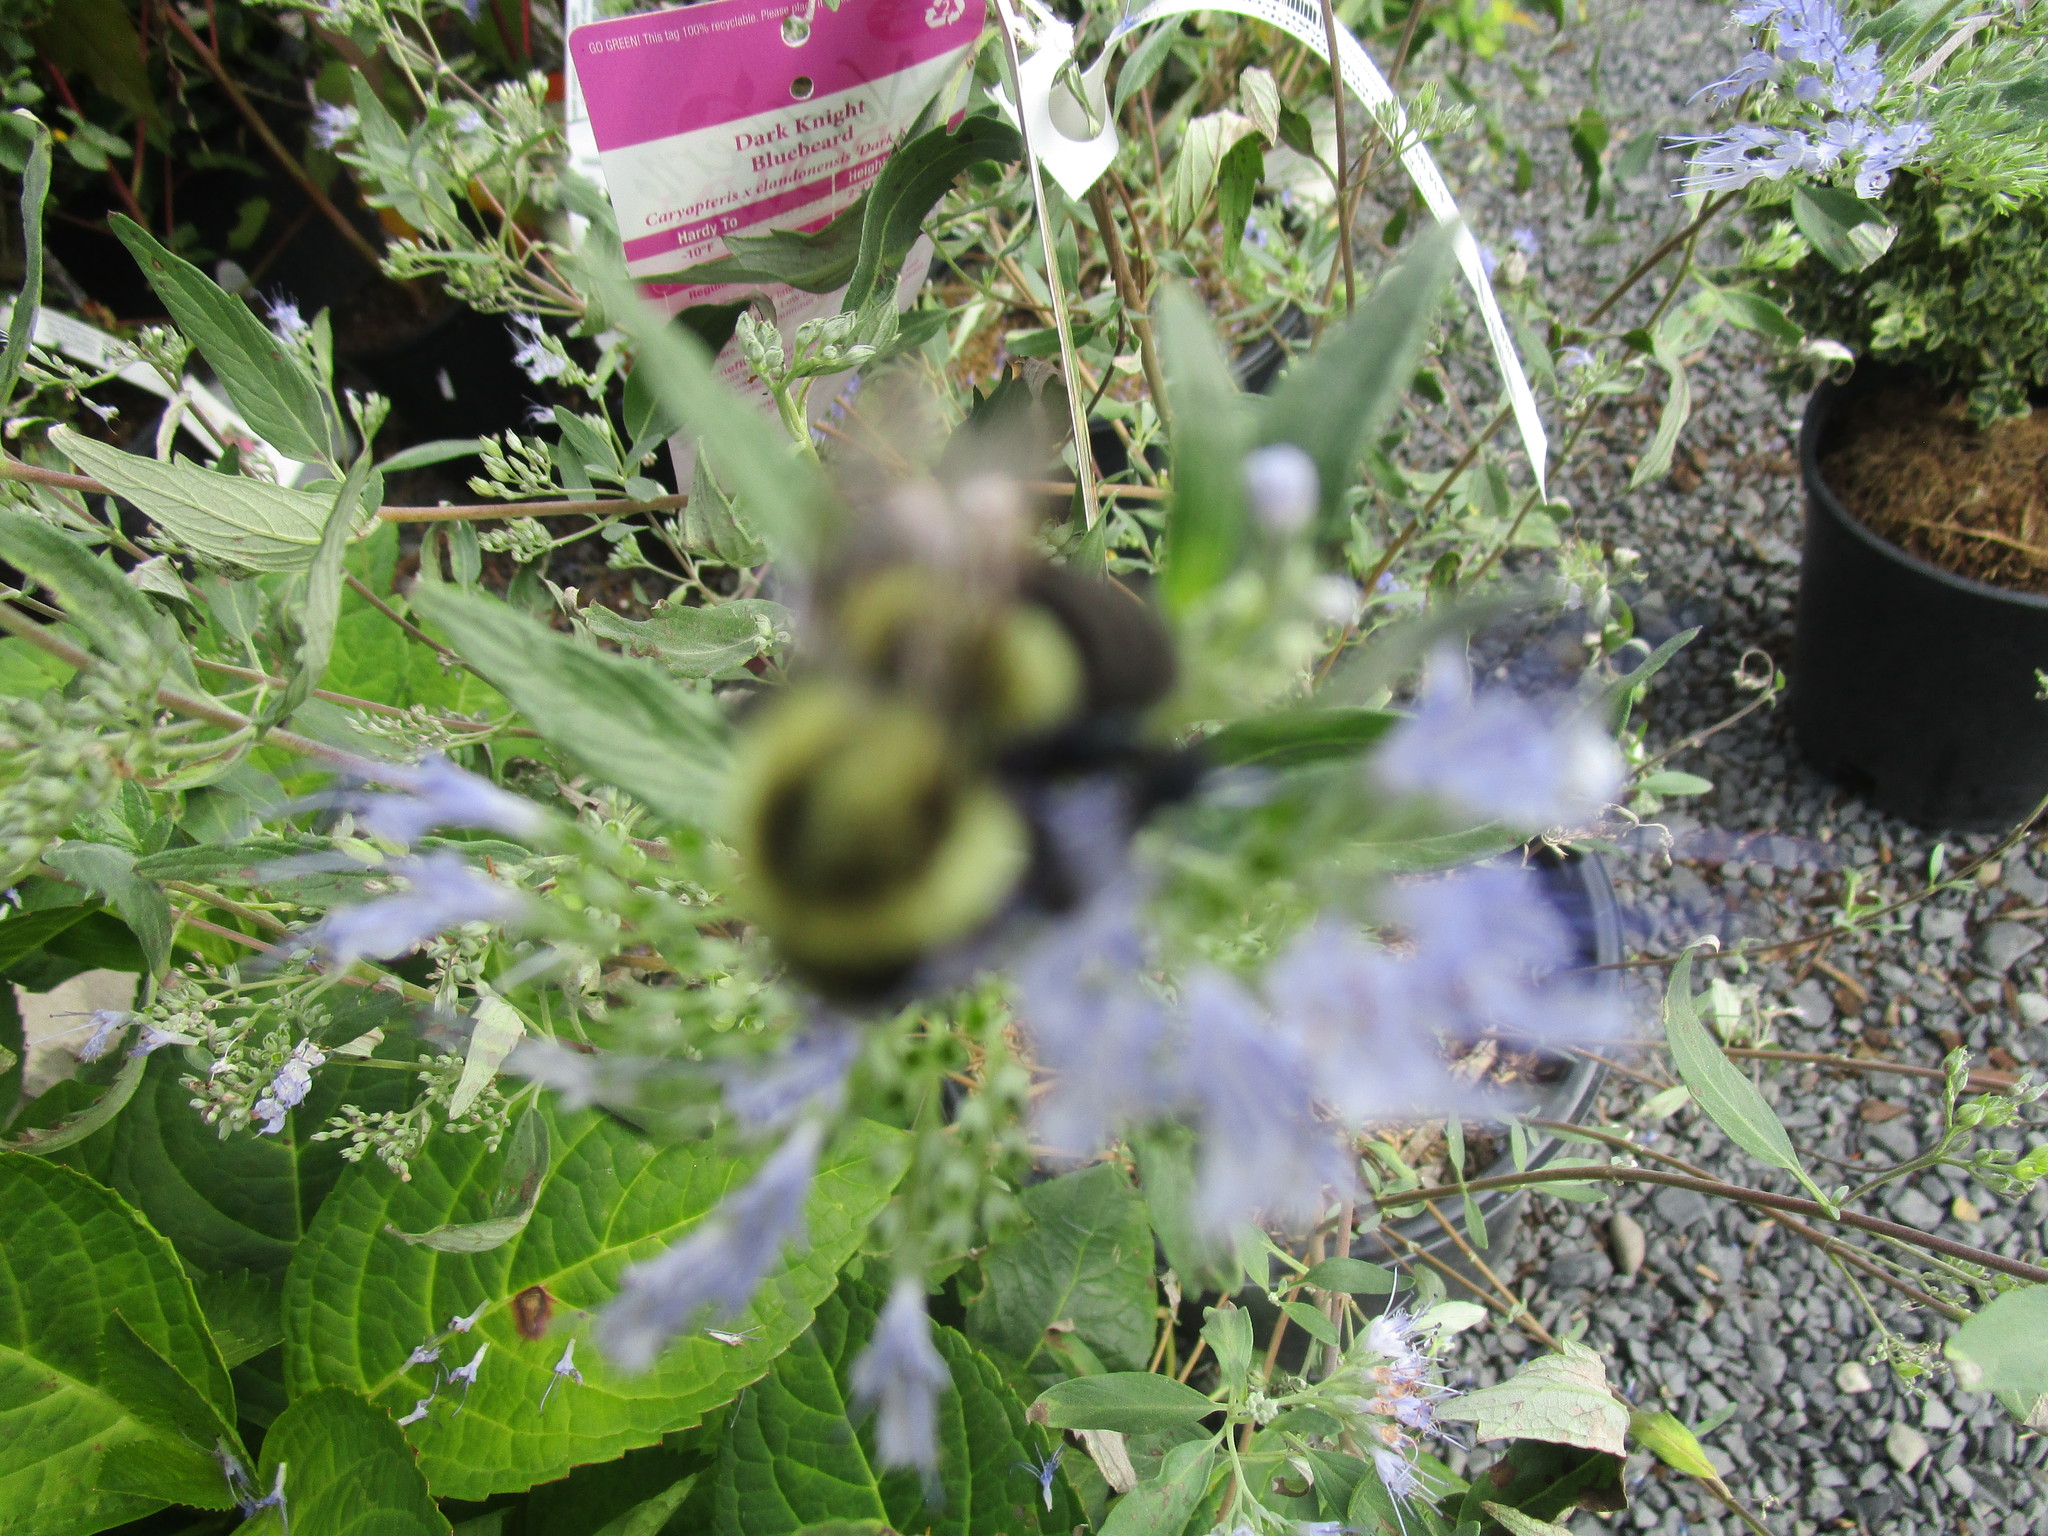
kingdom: Animalia
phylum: Arthropoda
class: Insecta
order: Hymenoptera
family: Apidae
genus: Bombus
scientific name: Bombus impatiens
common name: Common eastern bumble bee
